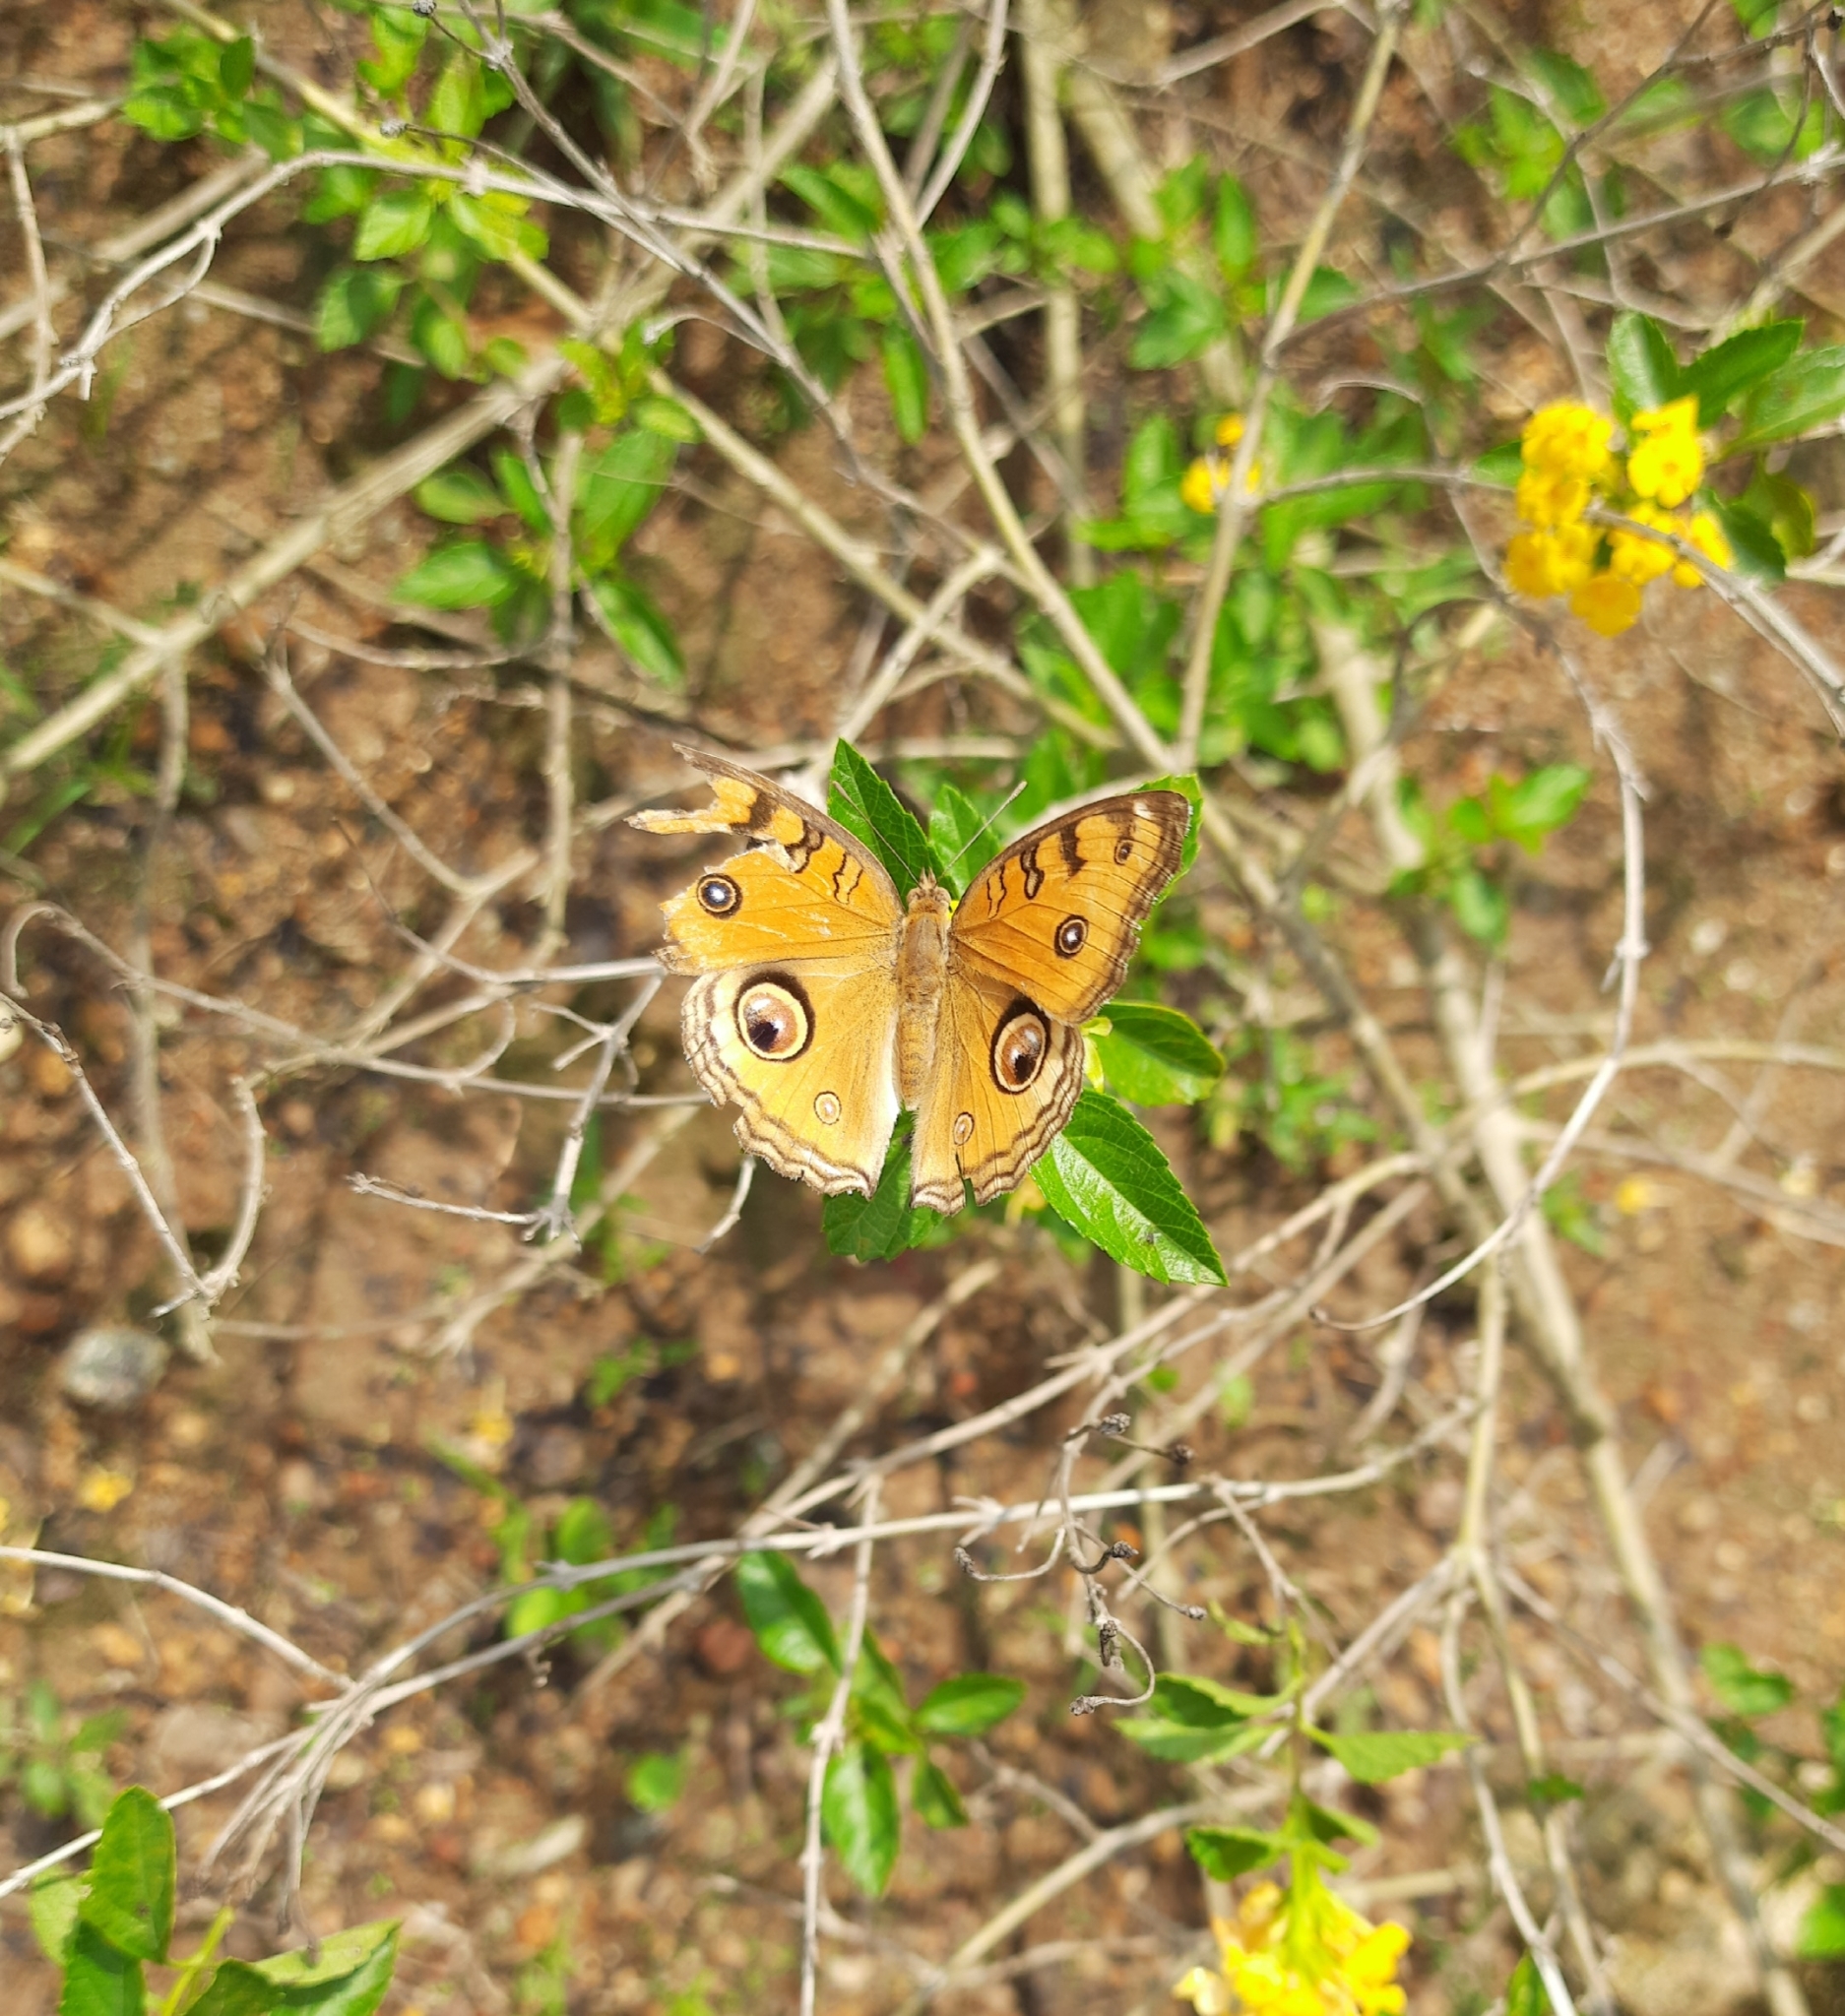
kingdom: Animalia
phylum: Arthropoda
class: Insecta
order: Lepidoptera
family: Nymphalidae
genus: Junonia
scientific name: Junonia almana
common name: Peacock pansy
